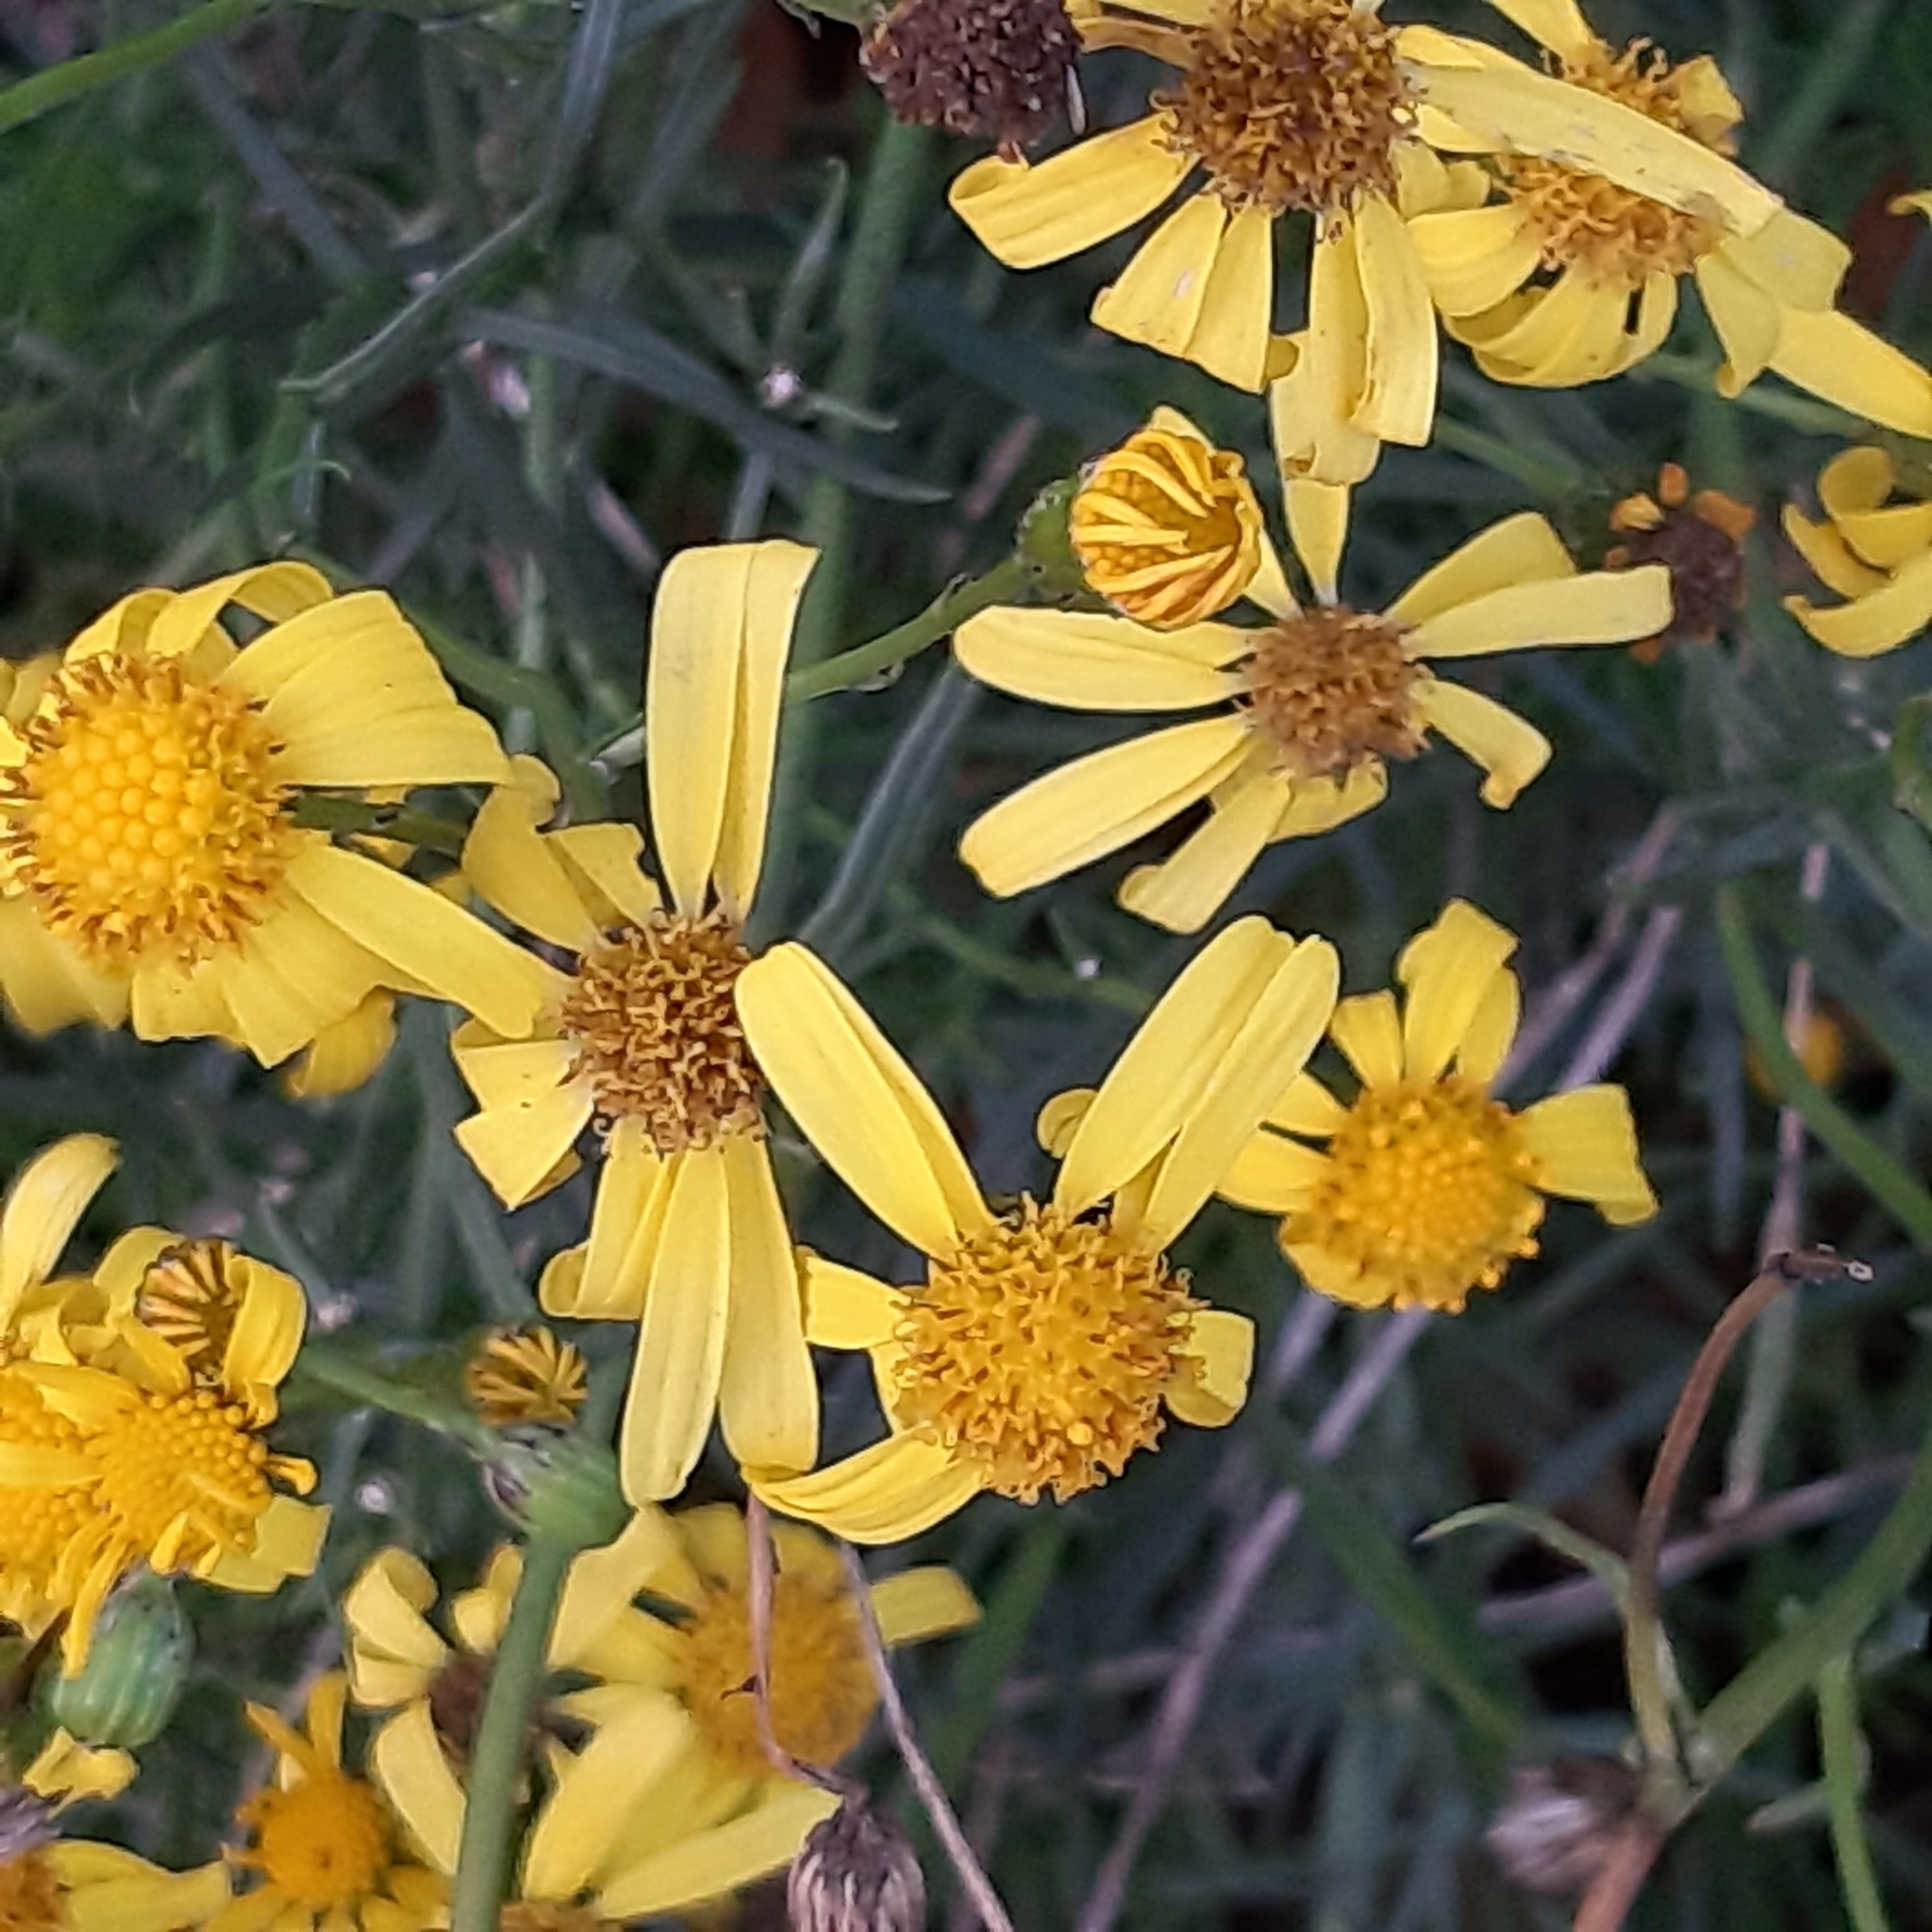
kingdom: Plantae
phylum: Tracheophyta
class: Magnoliopsida
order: Asterales
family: Asteraceae
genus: Senecio
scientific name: Senecio inaequidens
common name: Narrow-leaved ragwort
